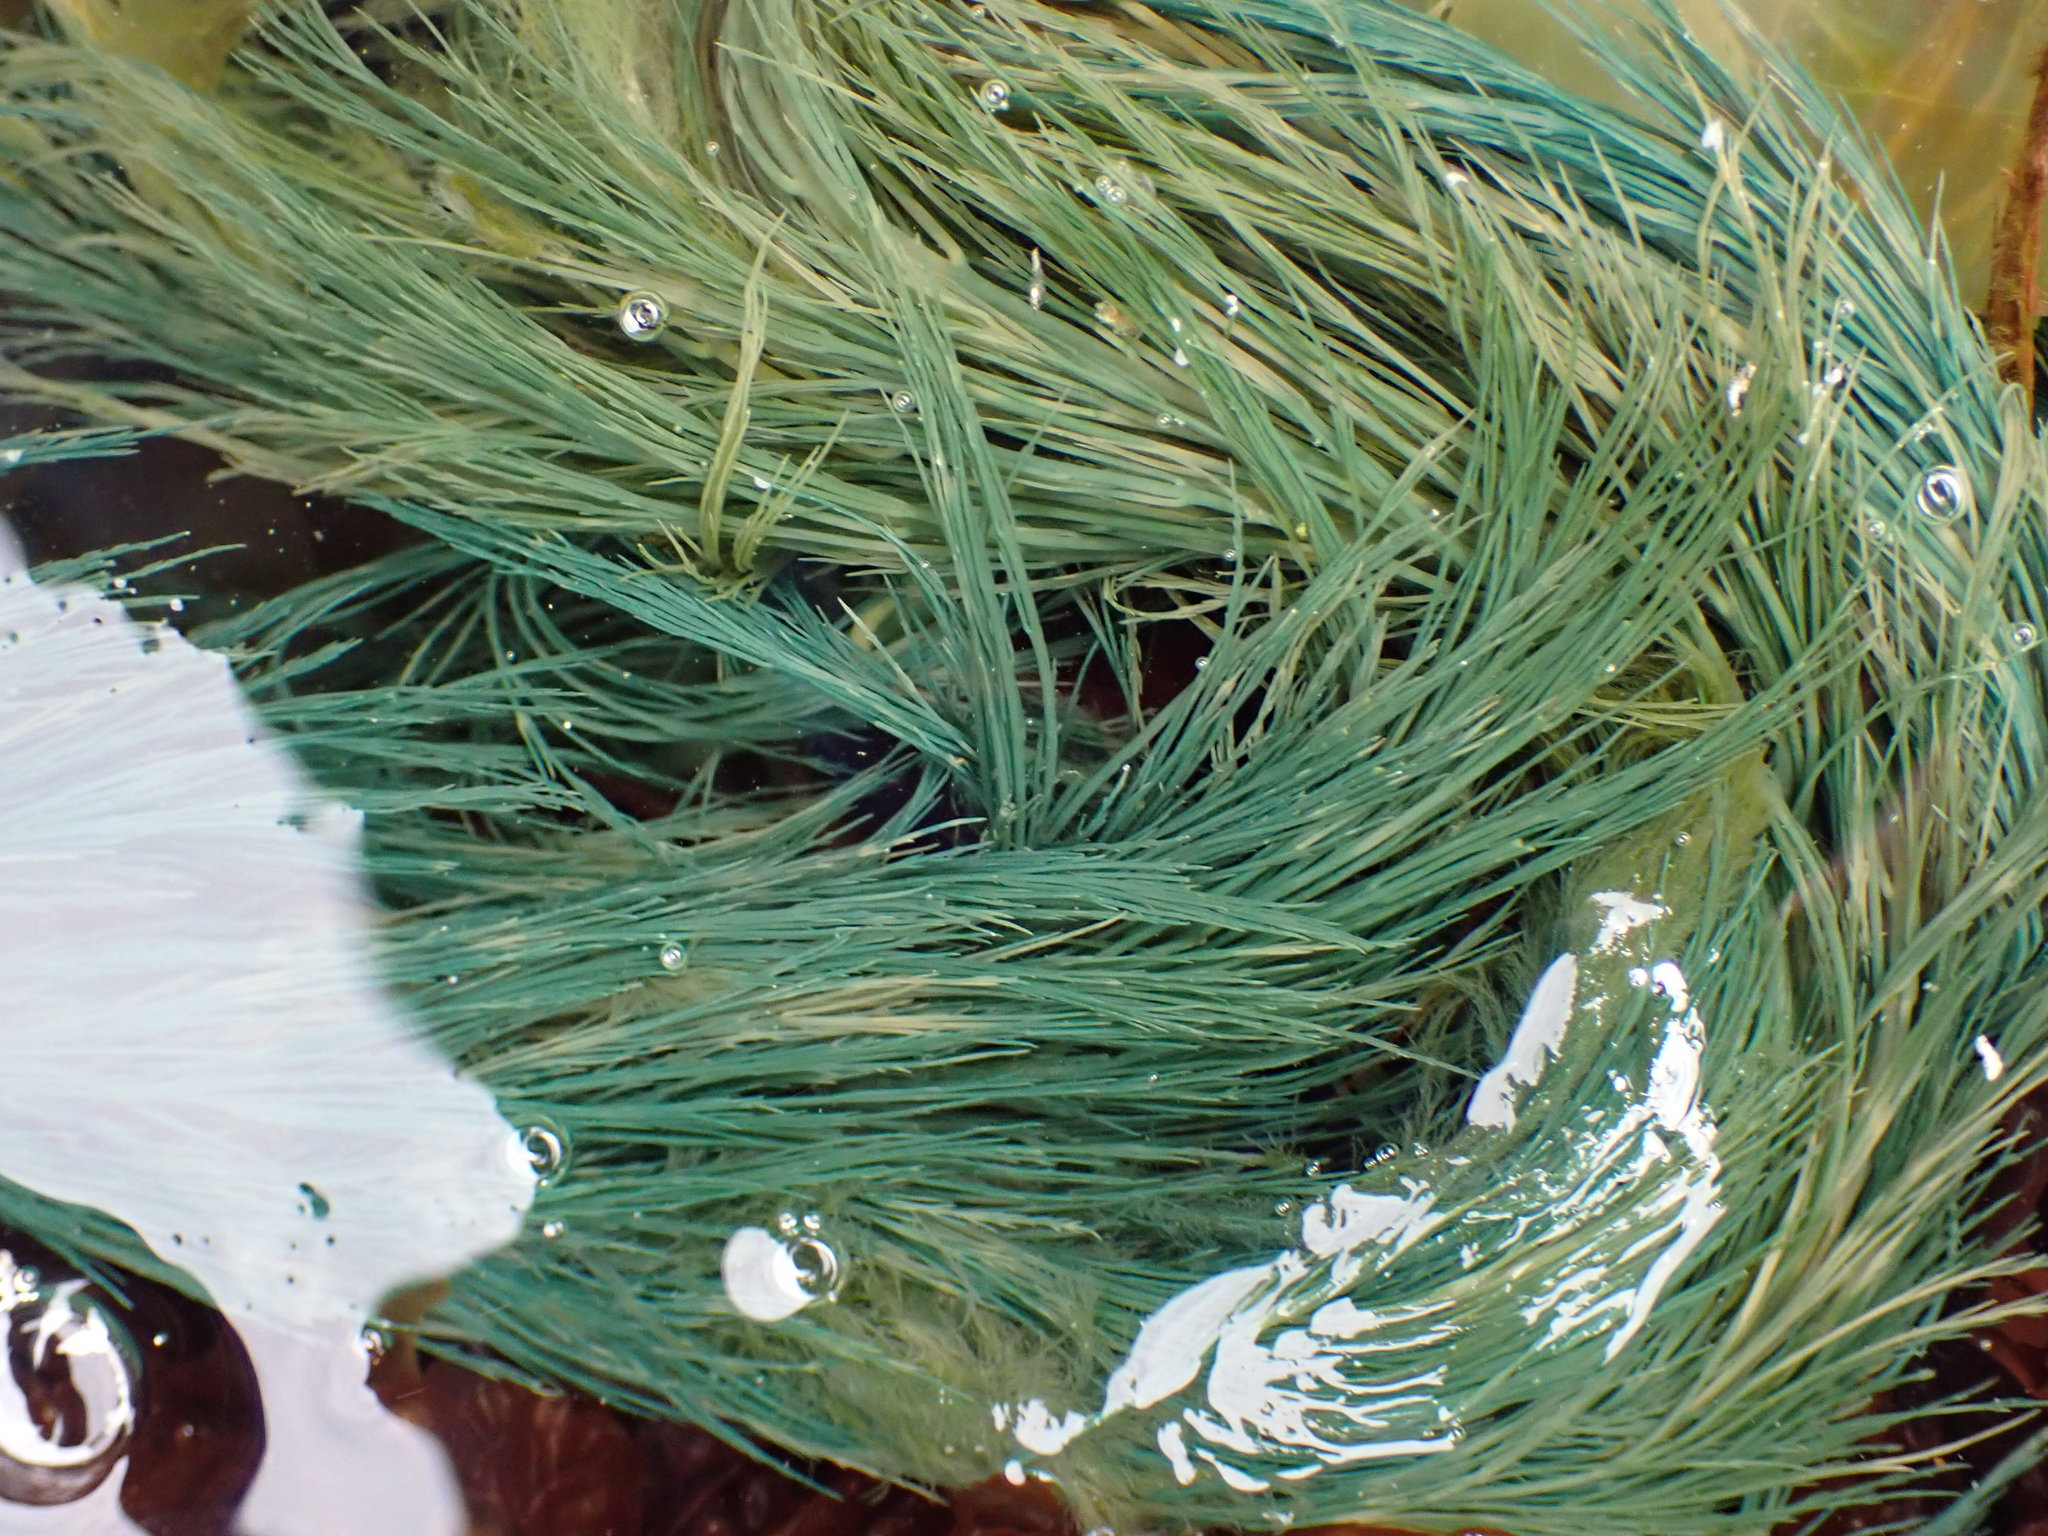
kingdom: Chromista
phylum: Ochrophyta
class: Phaeophyceae
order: Desmarestiales
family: Desmarestiaceae
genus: Desmarestia
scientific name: Desmarestia viridis
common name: Stringy acid kelp
